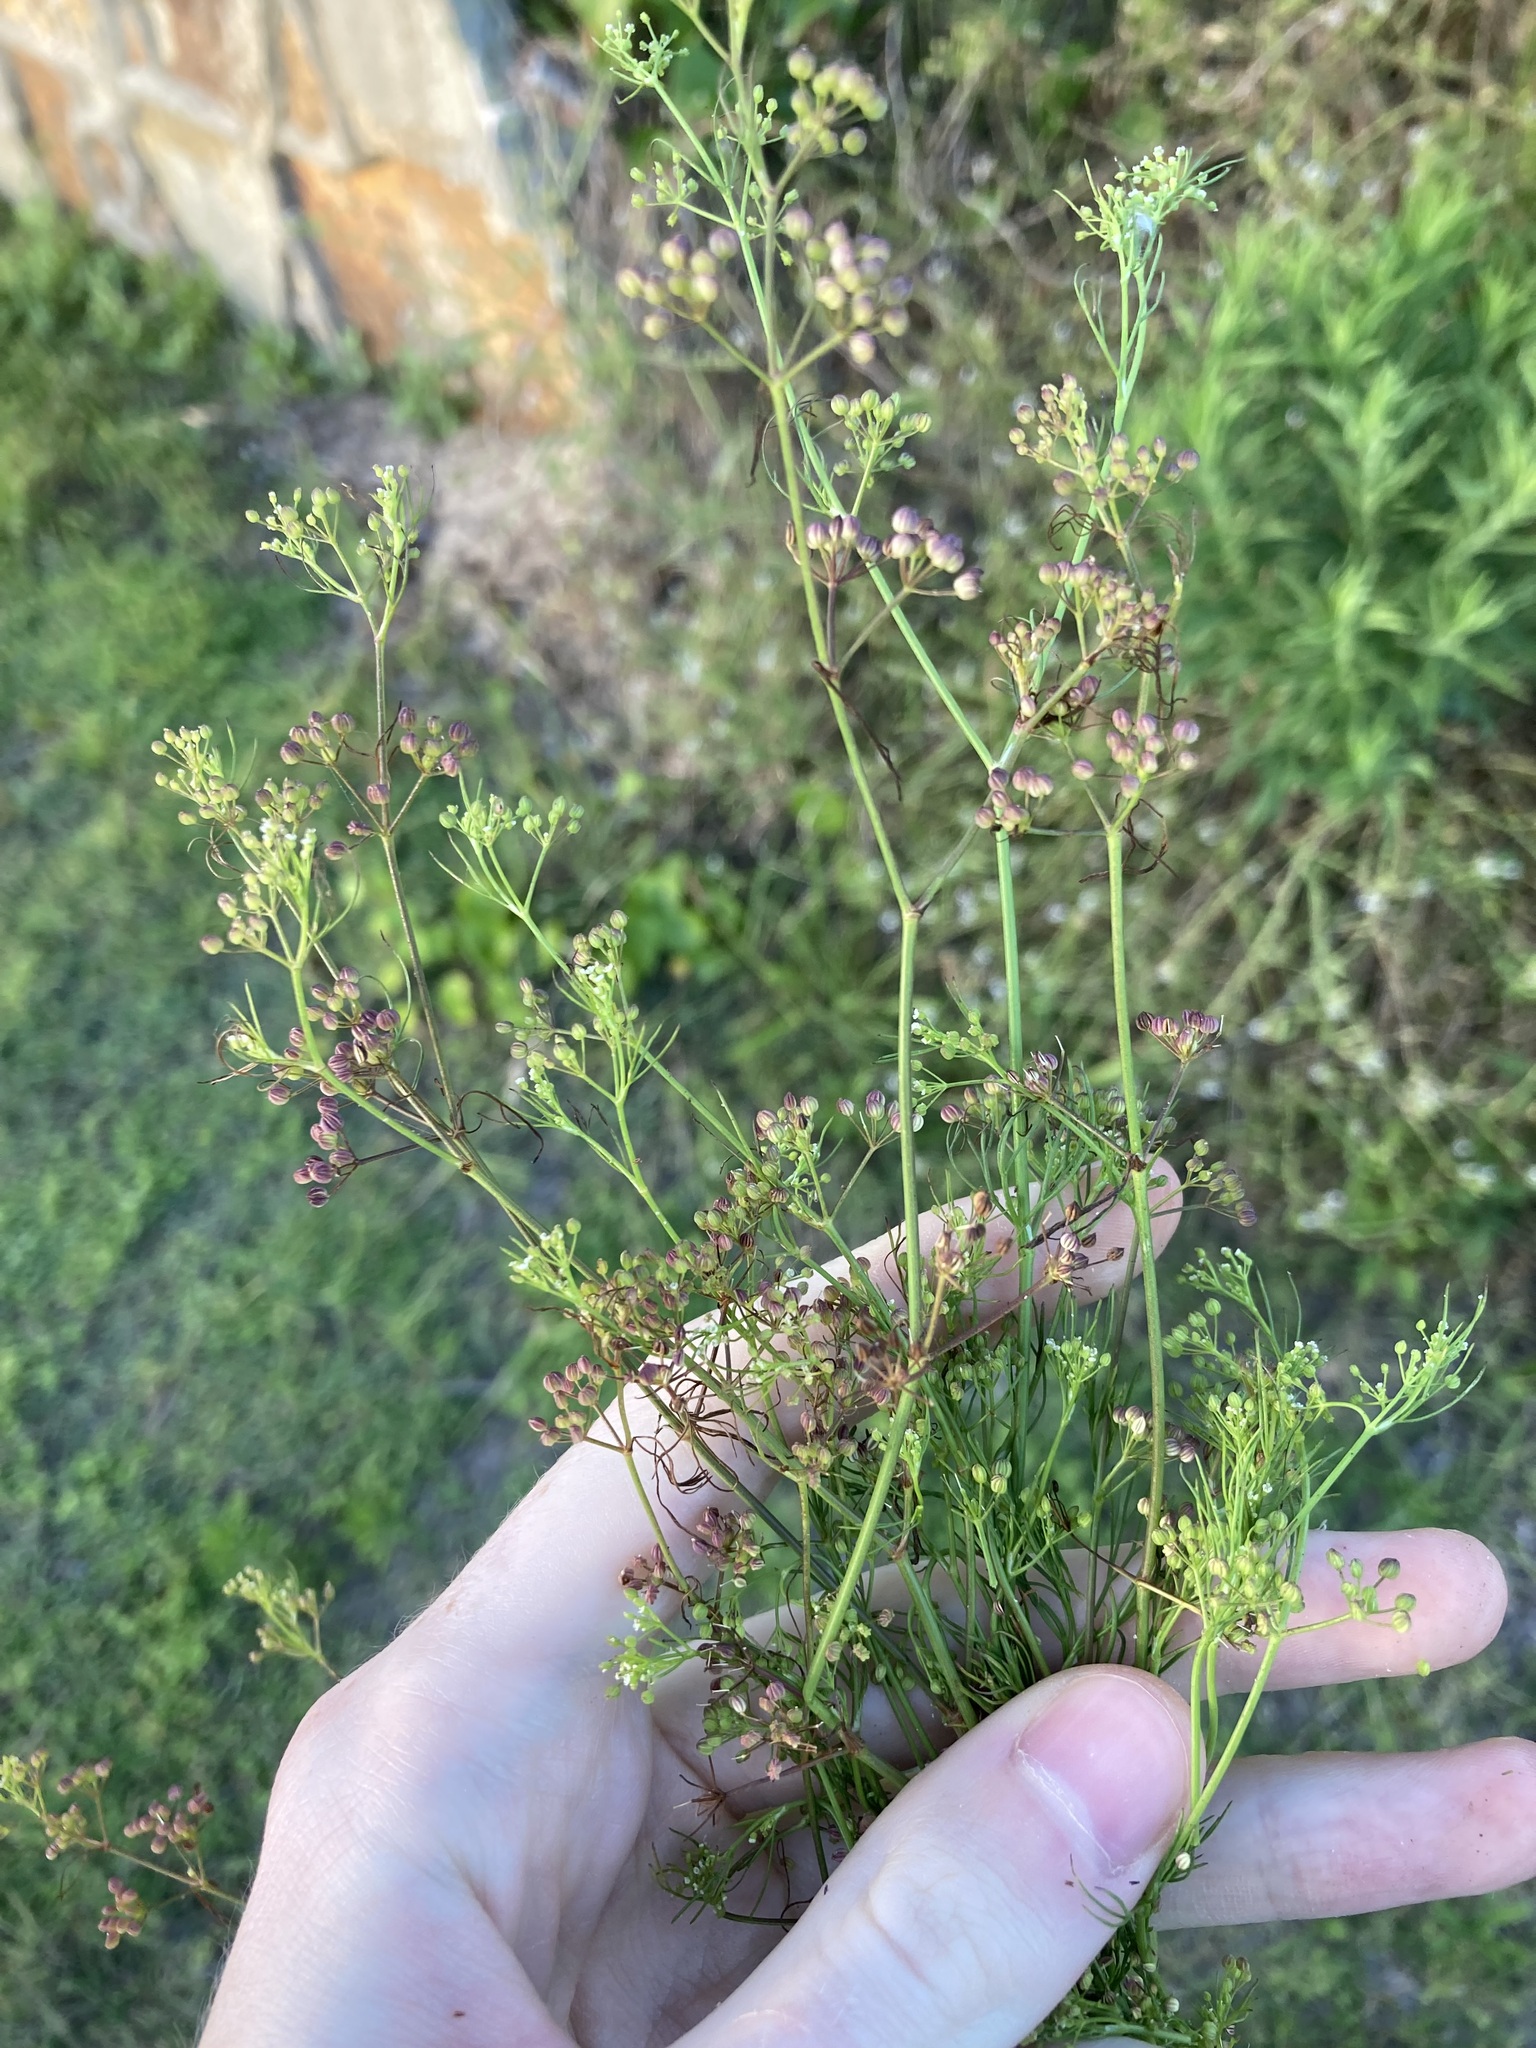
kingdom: Plantae
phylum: Tracheophyta
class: Magnoliopsida
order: Apiales
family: Apiaceae
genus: Cyclospermum
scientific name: Cyclospermum leptophyllum
